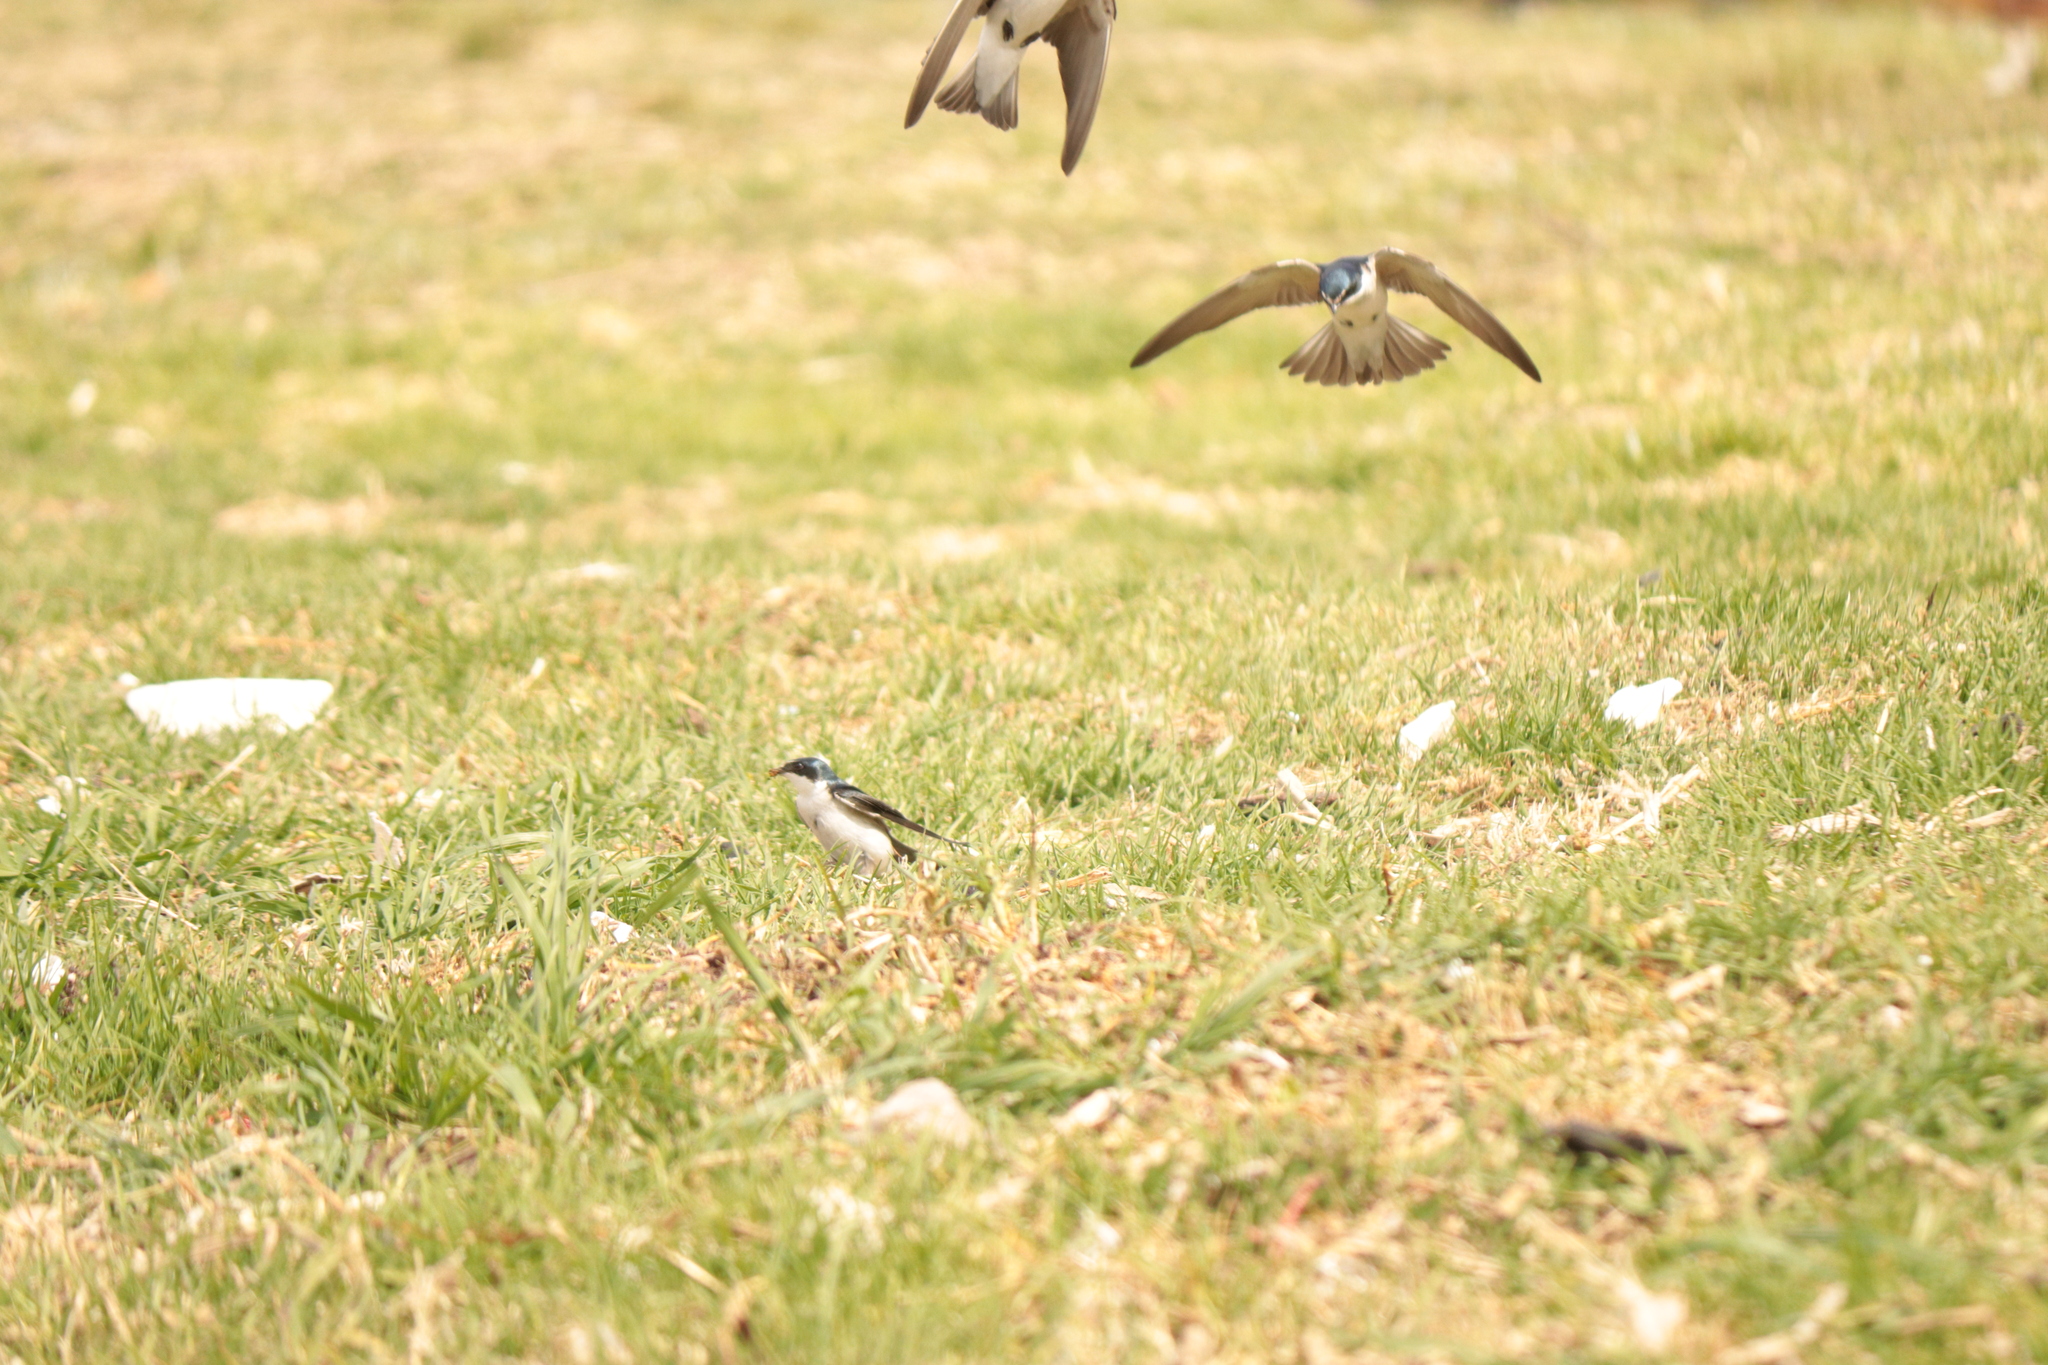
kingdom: Animalia
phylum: Chordata
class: Aves
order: Passeriformes
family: Hirundinidae
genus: Tachycineta
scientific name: Tachycineta leucorrhoa
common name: White-rumped swallow
